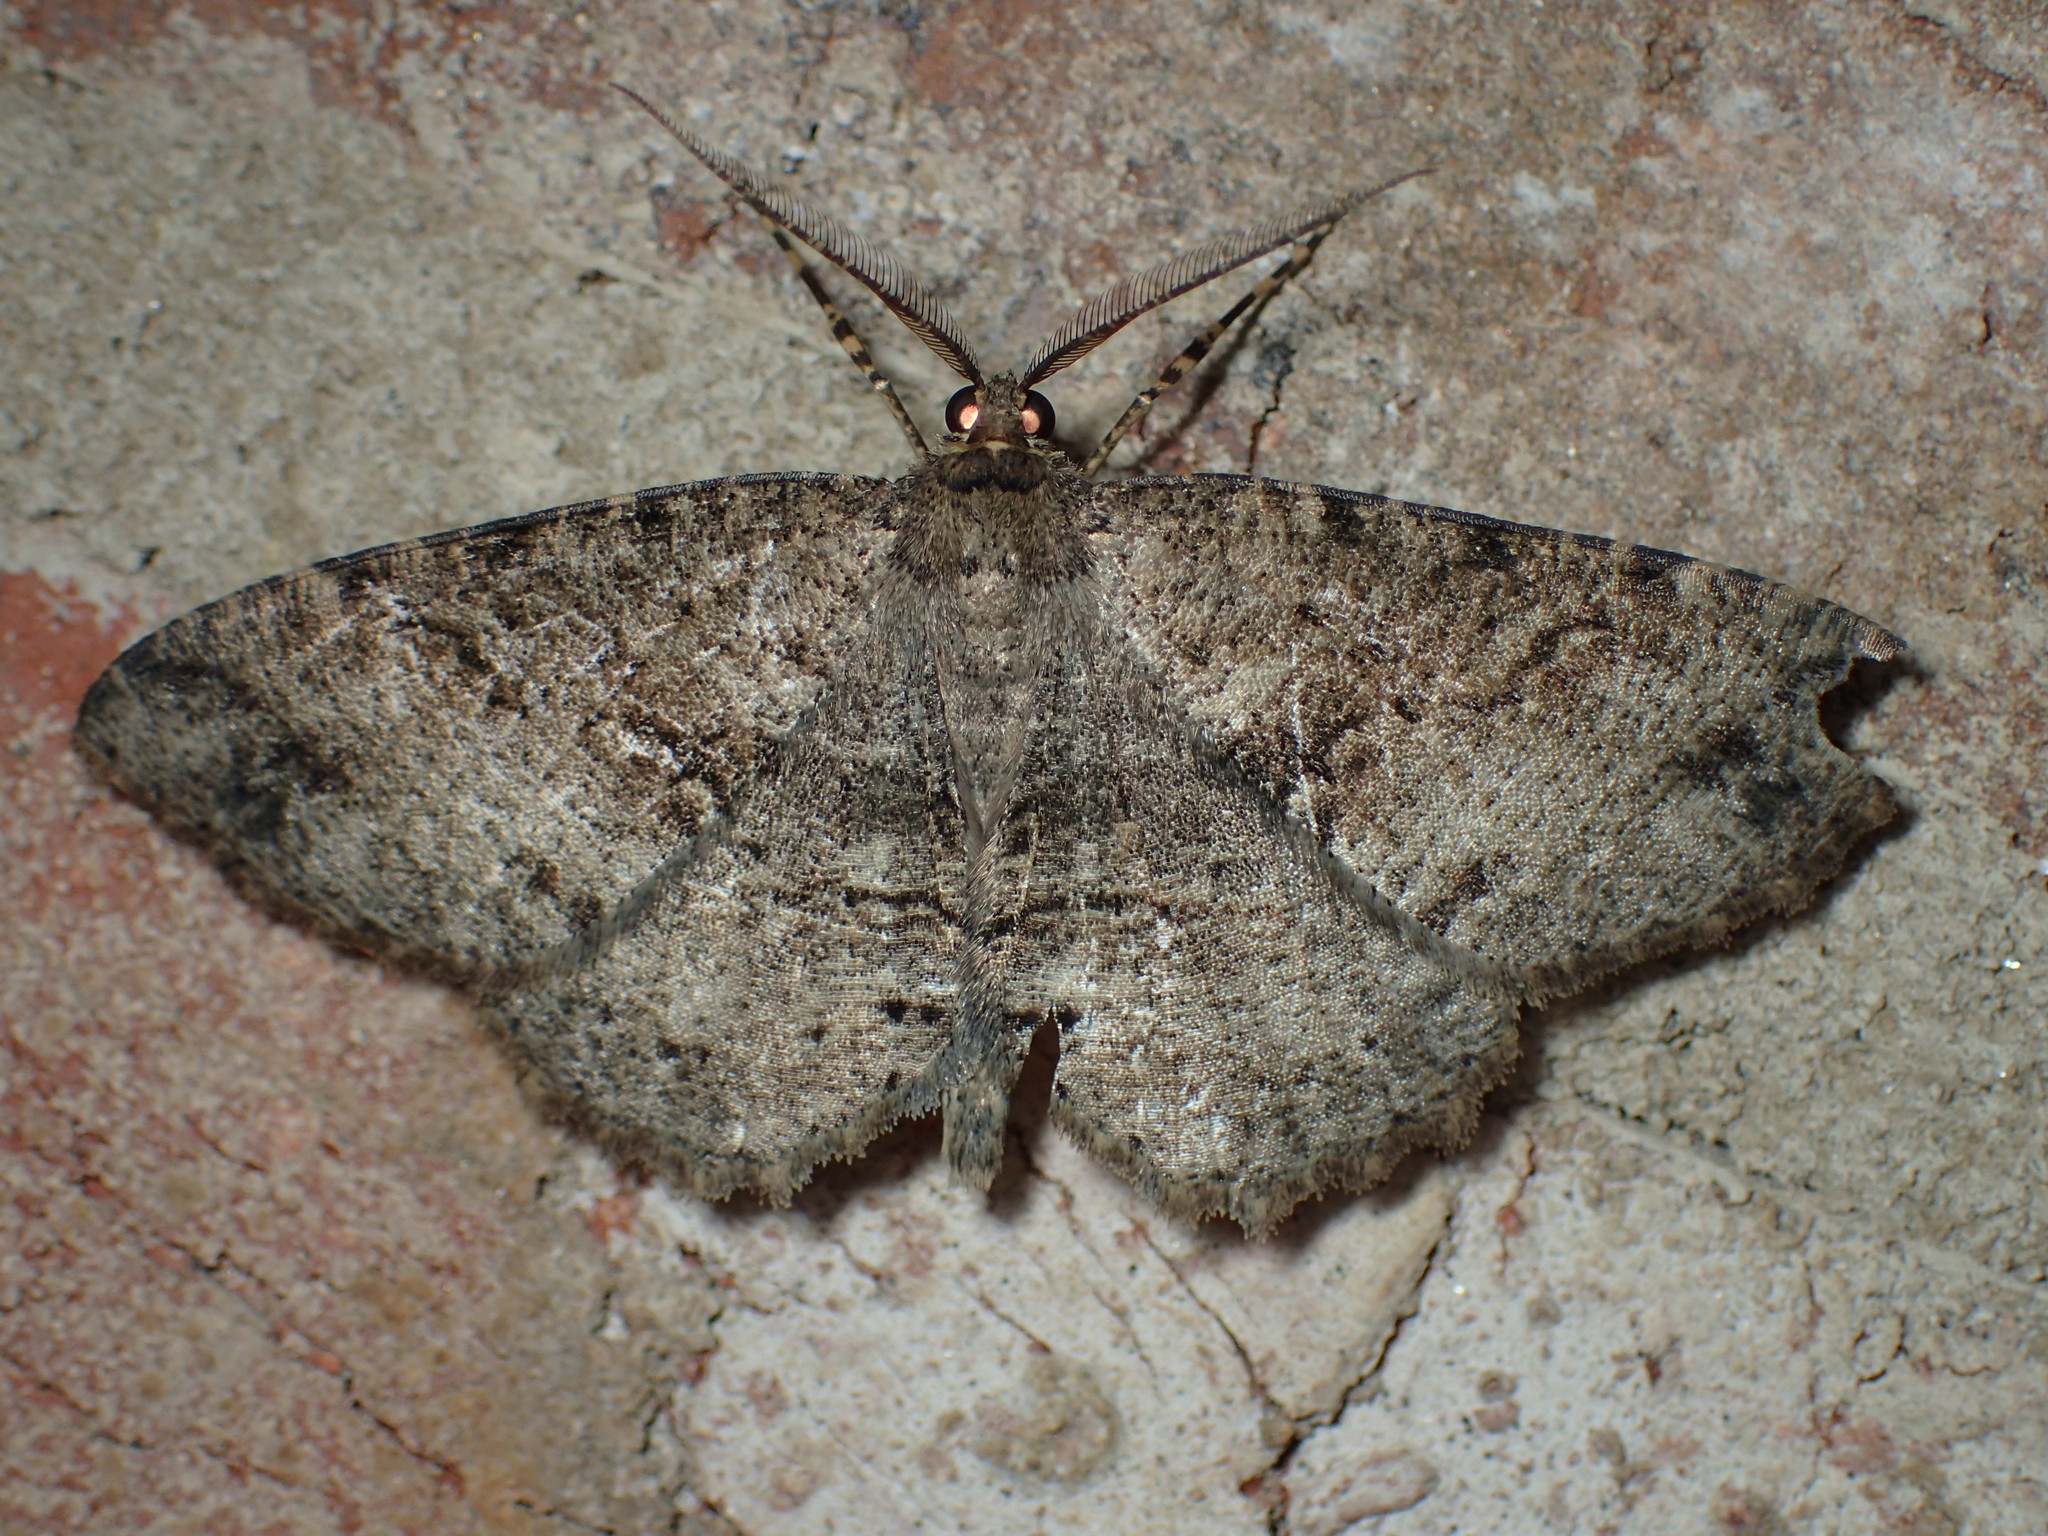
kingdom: Animalia
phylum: Arthropoda
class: Insecta
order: Lepidoptera
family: Geometridae
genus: Melanolophia
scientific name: Melanolophia signataria
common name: Signate melanolophia
